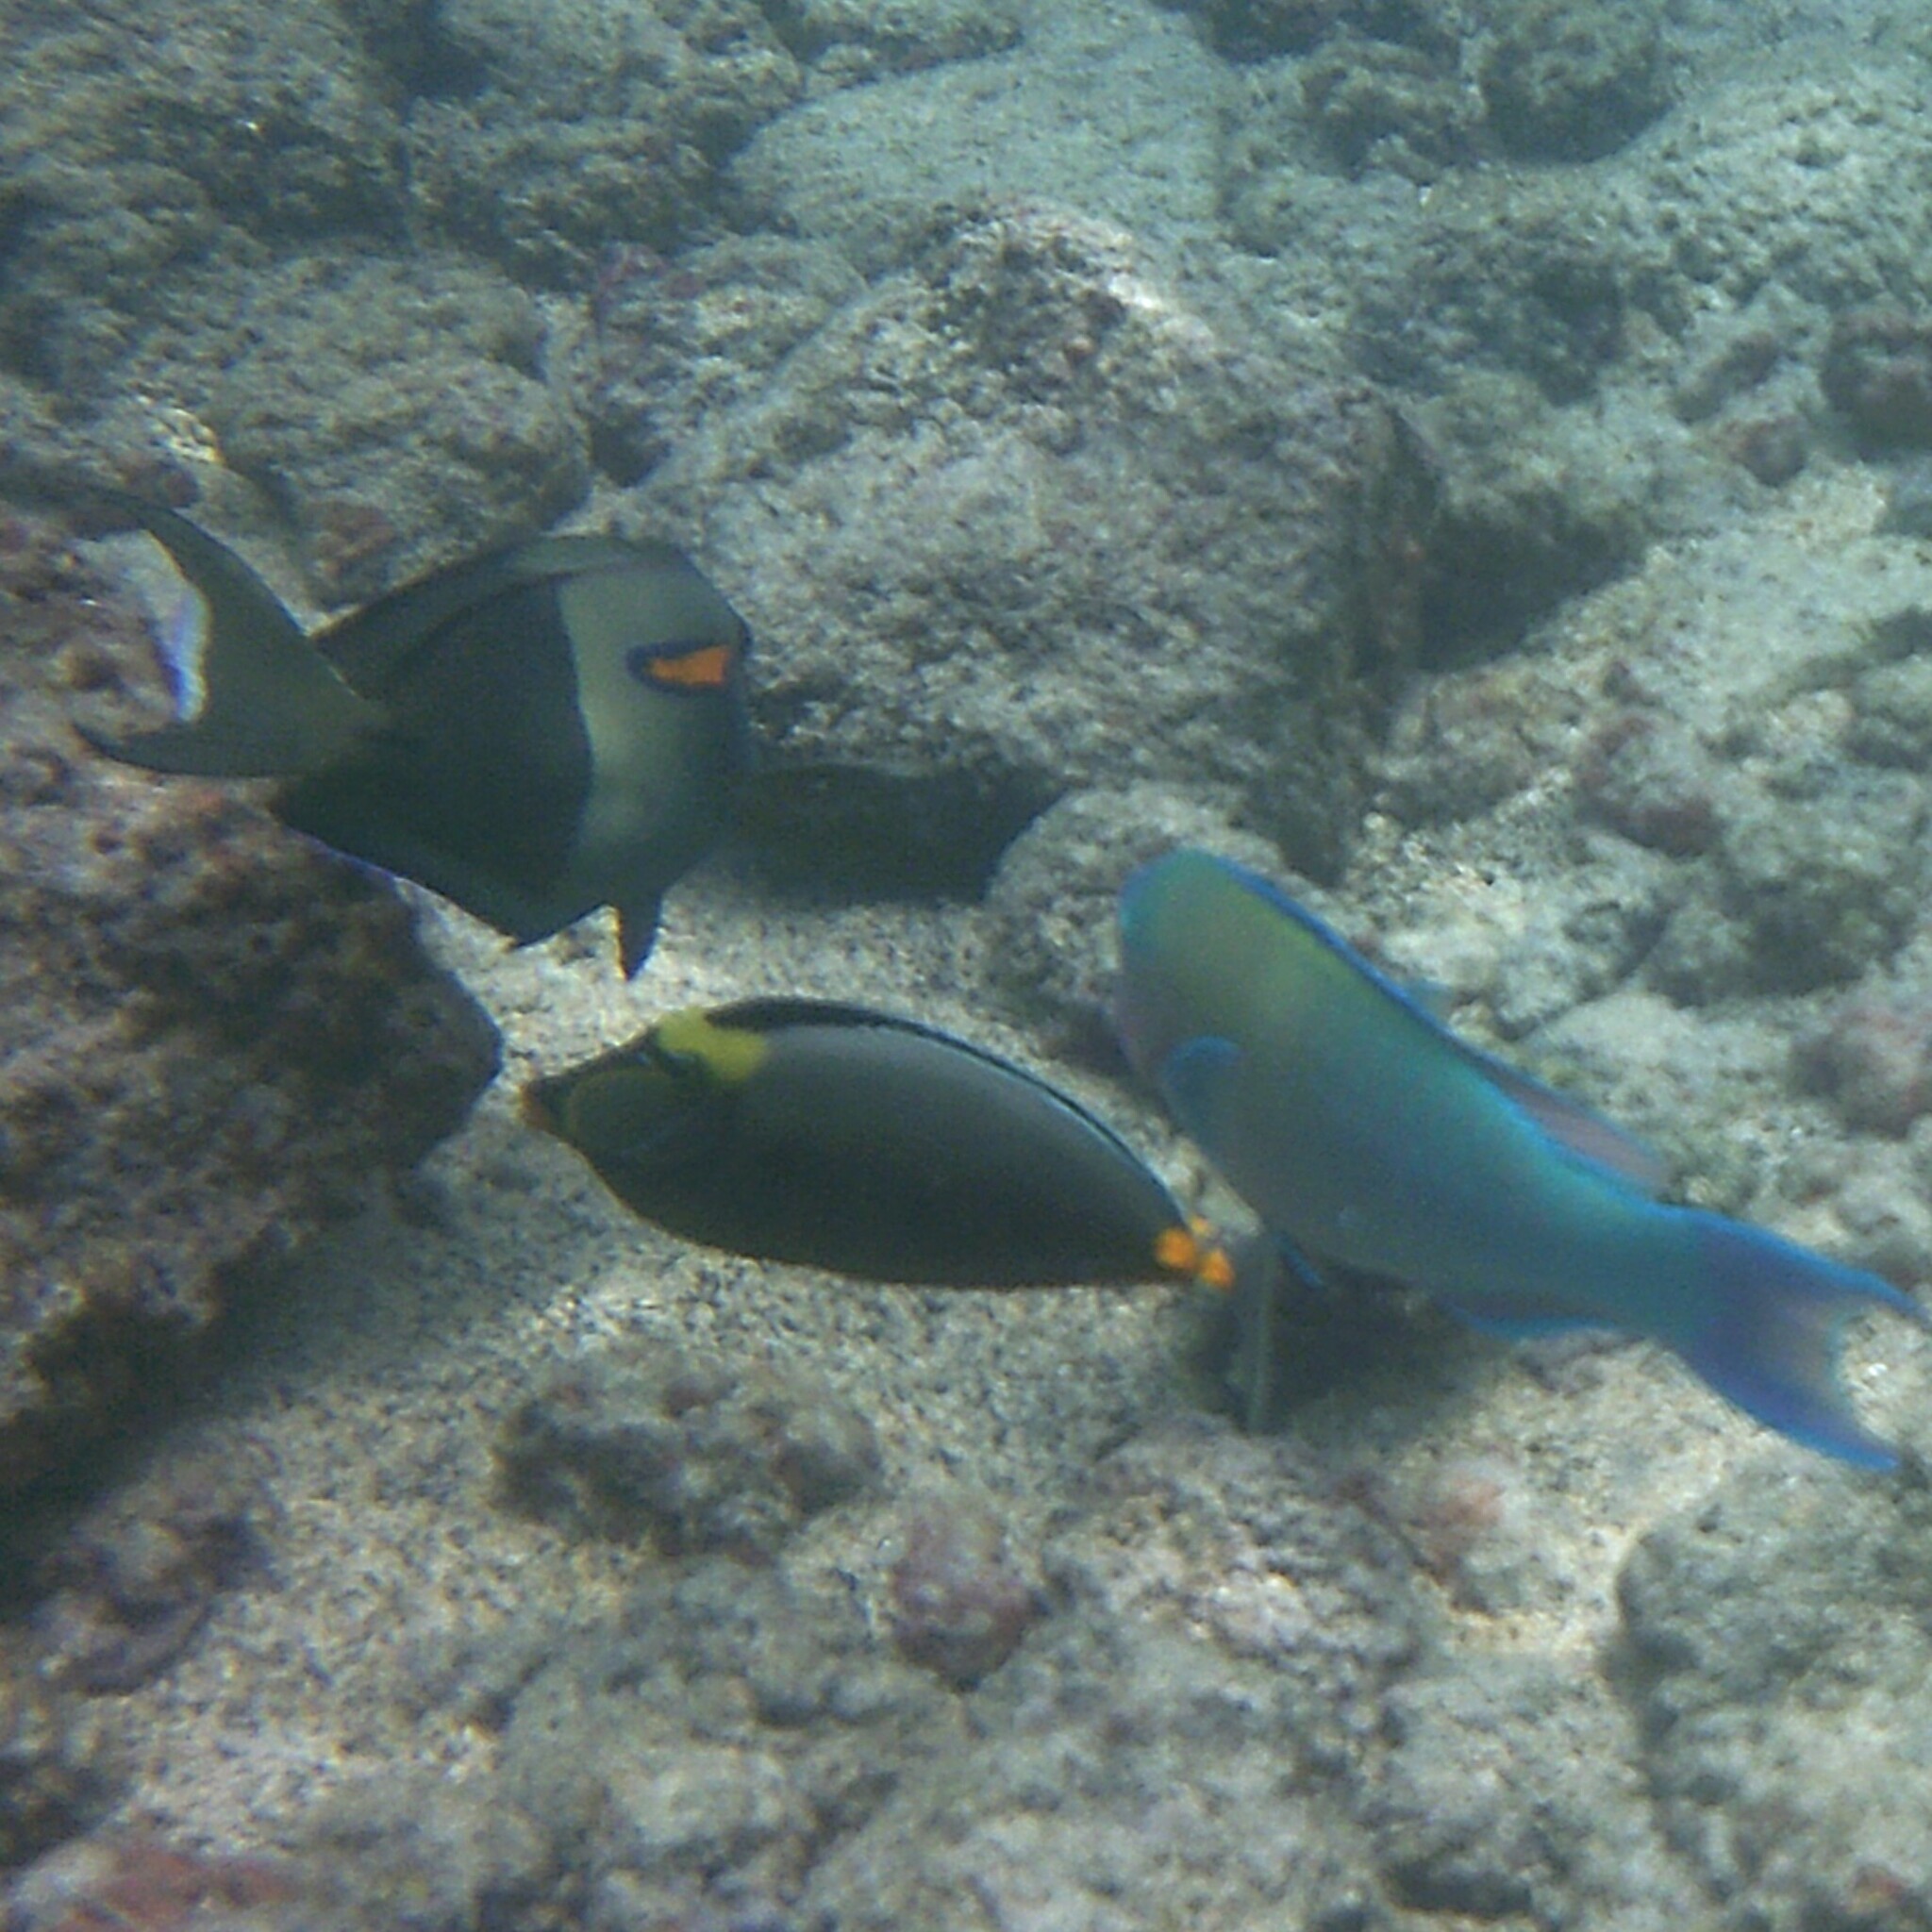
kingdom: Animalia
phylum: Chordata
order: Perciformes
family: Acanthuridae
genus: Naso
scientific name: Naso lituratus
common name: Orangespine unicornfish
